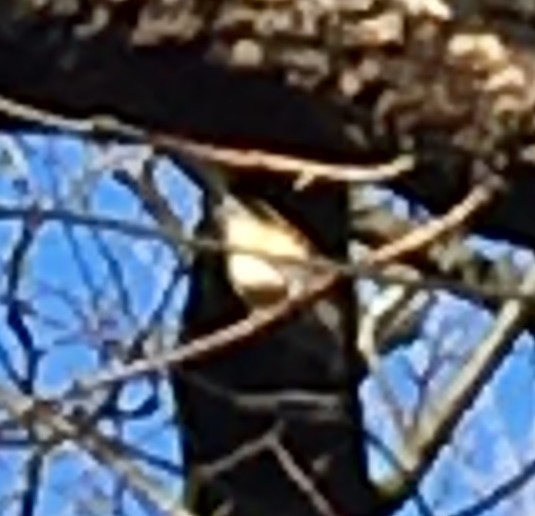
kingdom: Animalia
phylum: Chordata
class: Aves
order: Passeriformes
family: Paridae
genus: Baeolophus
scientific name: Baeolophus bicolor
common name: Tufted titmouse
